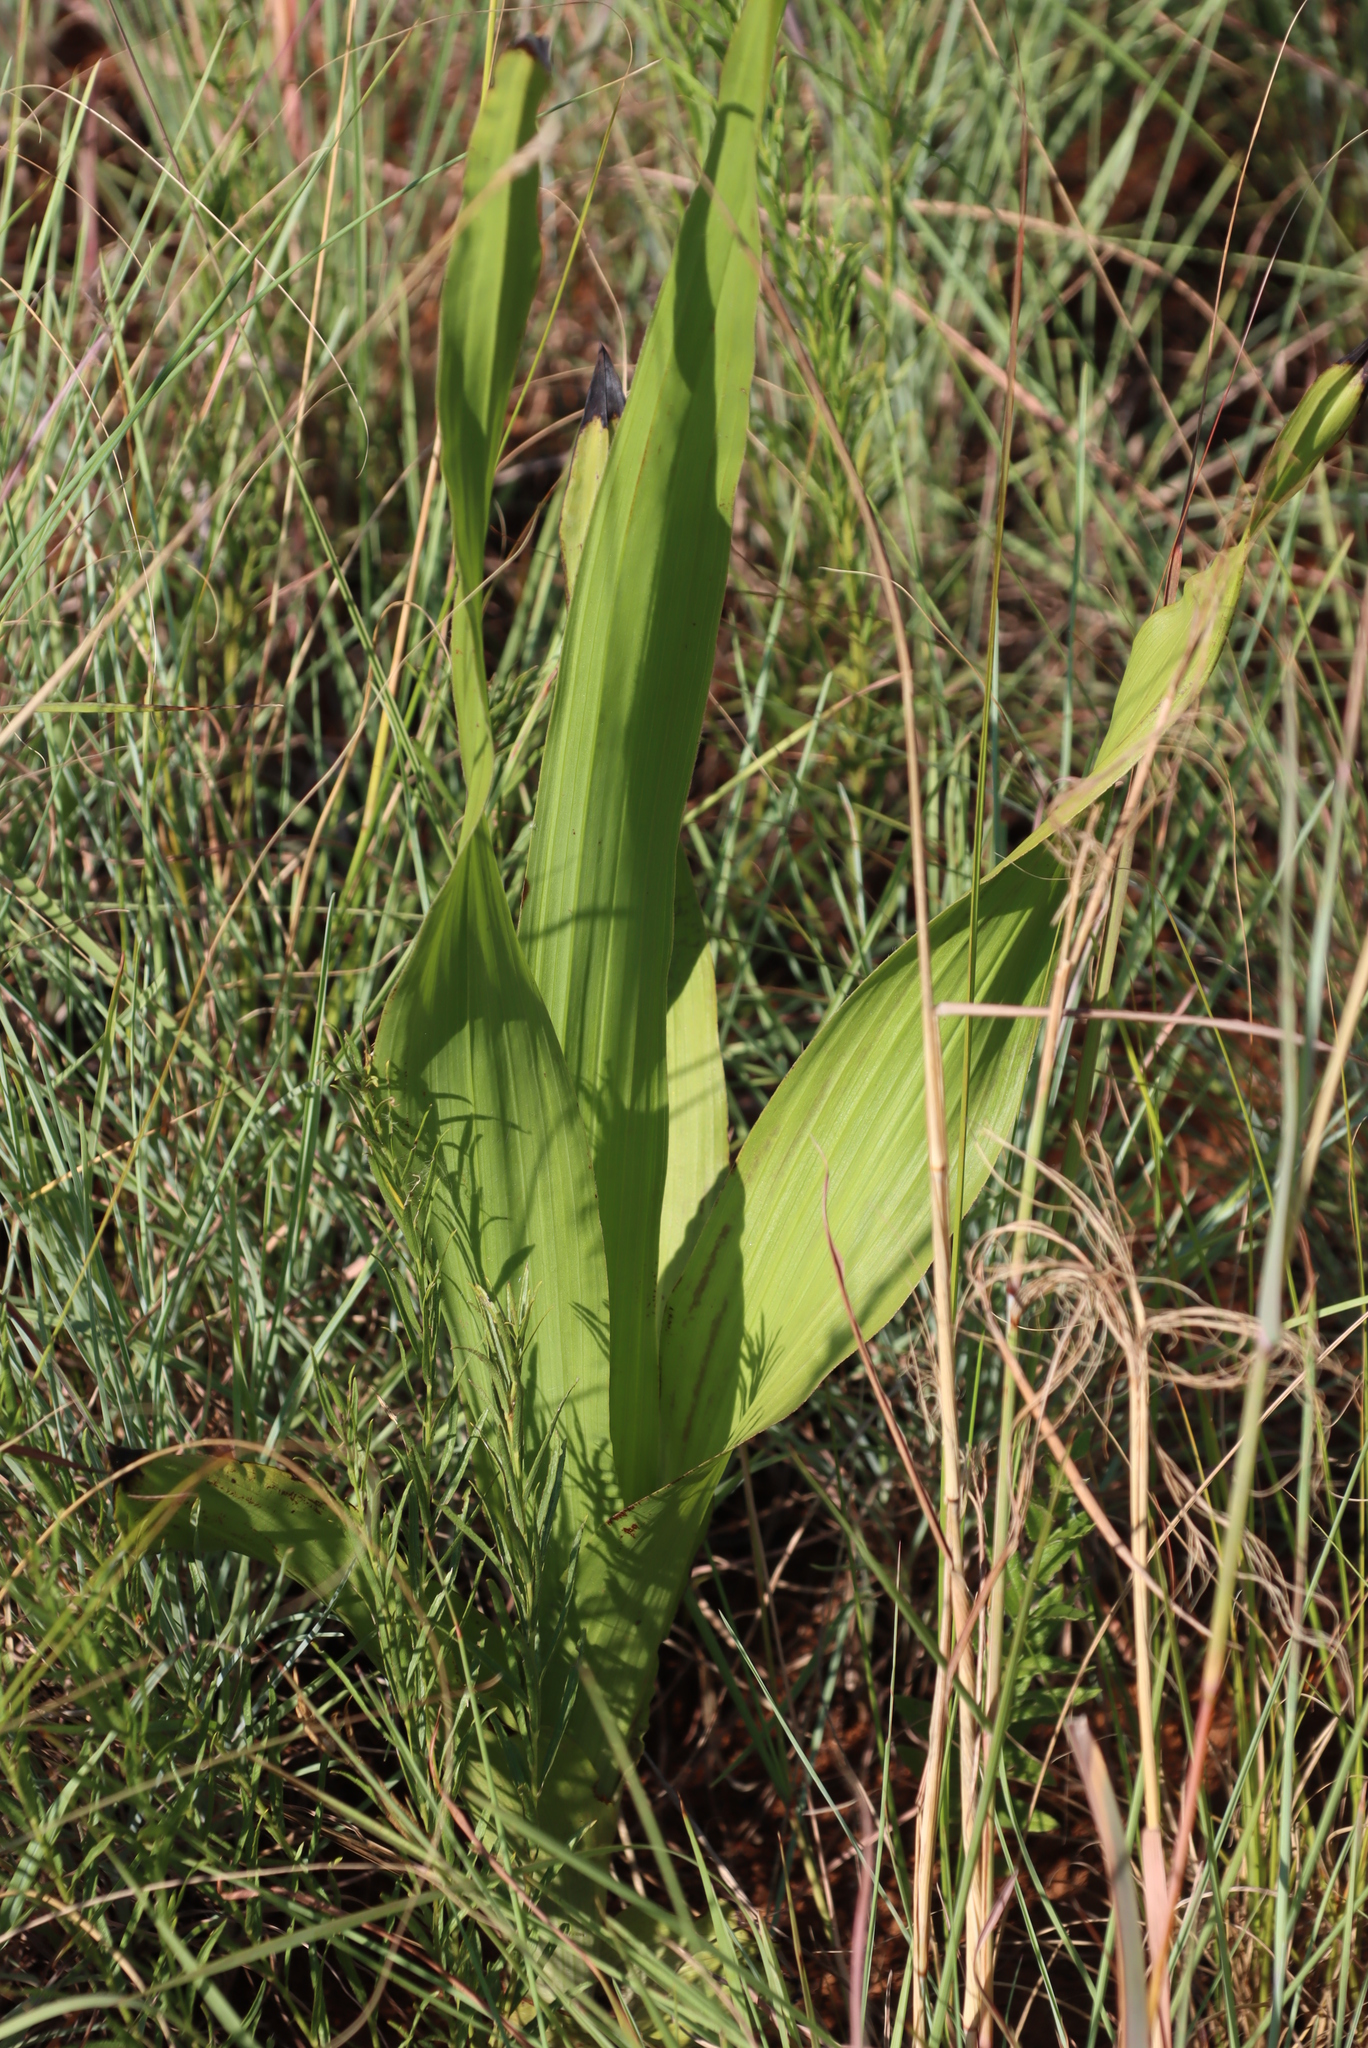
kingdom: Plantae
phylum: Tracheophyta
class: Liliopsida
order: Asparagales
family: Hypoxidaceae
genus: Hypoxis
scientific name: Hypoxis galpinii
